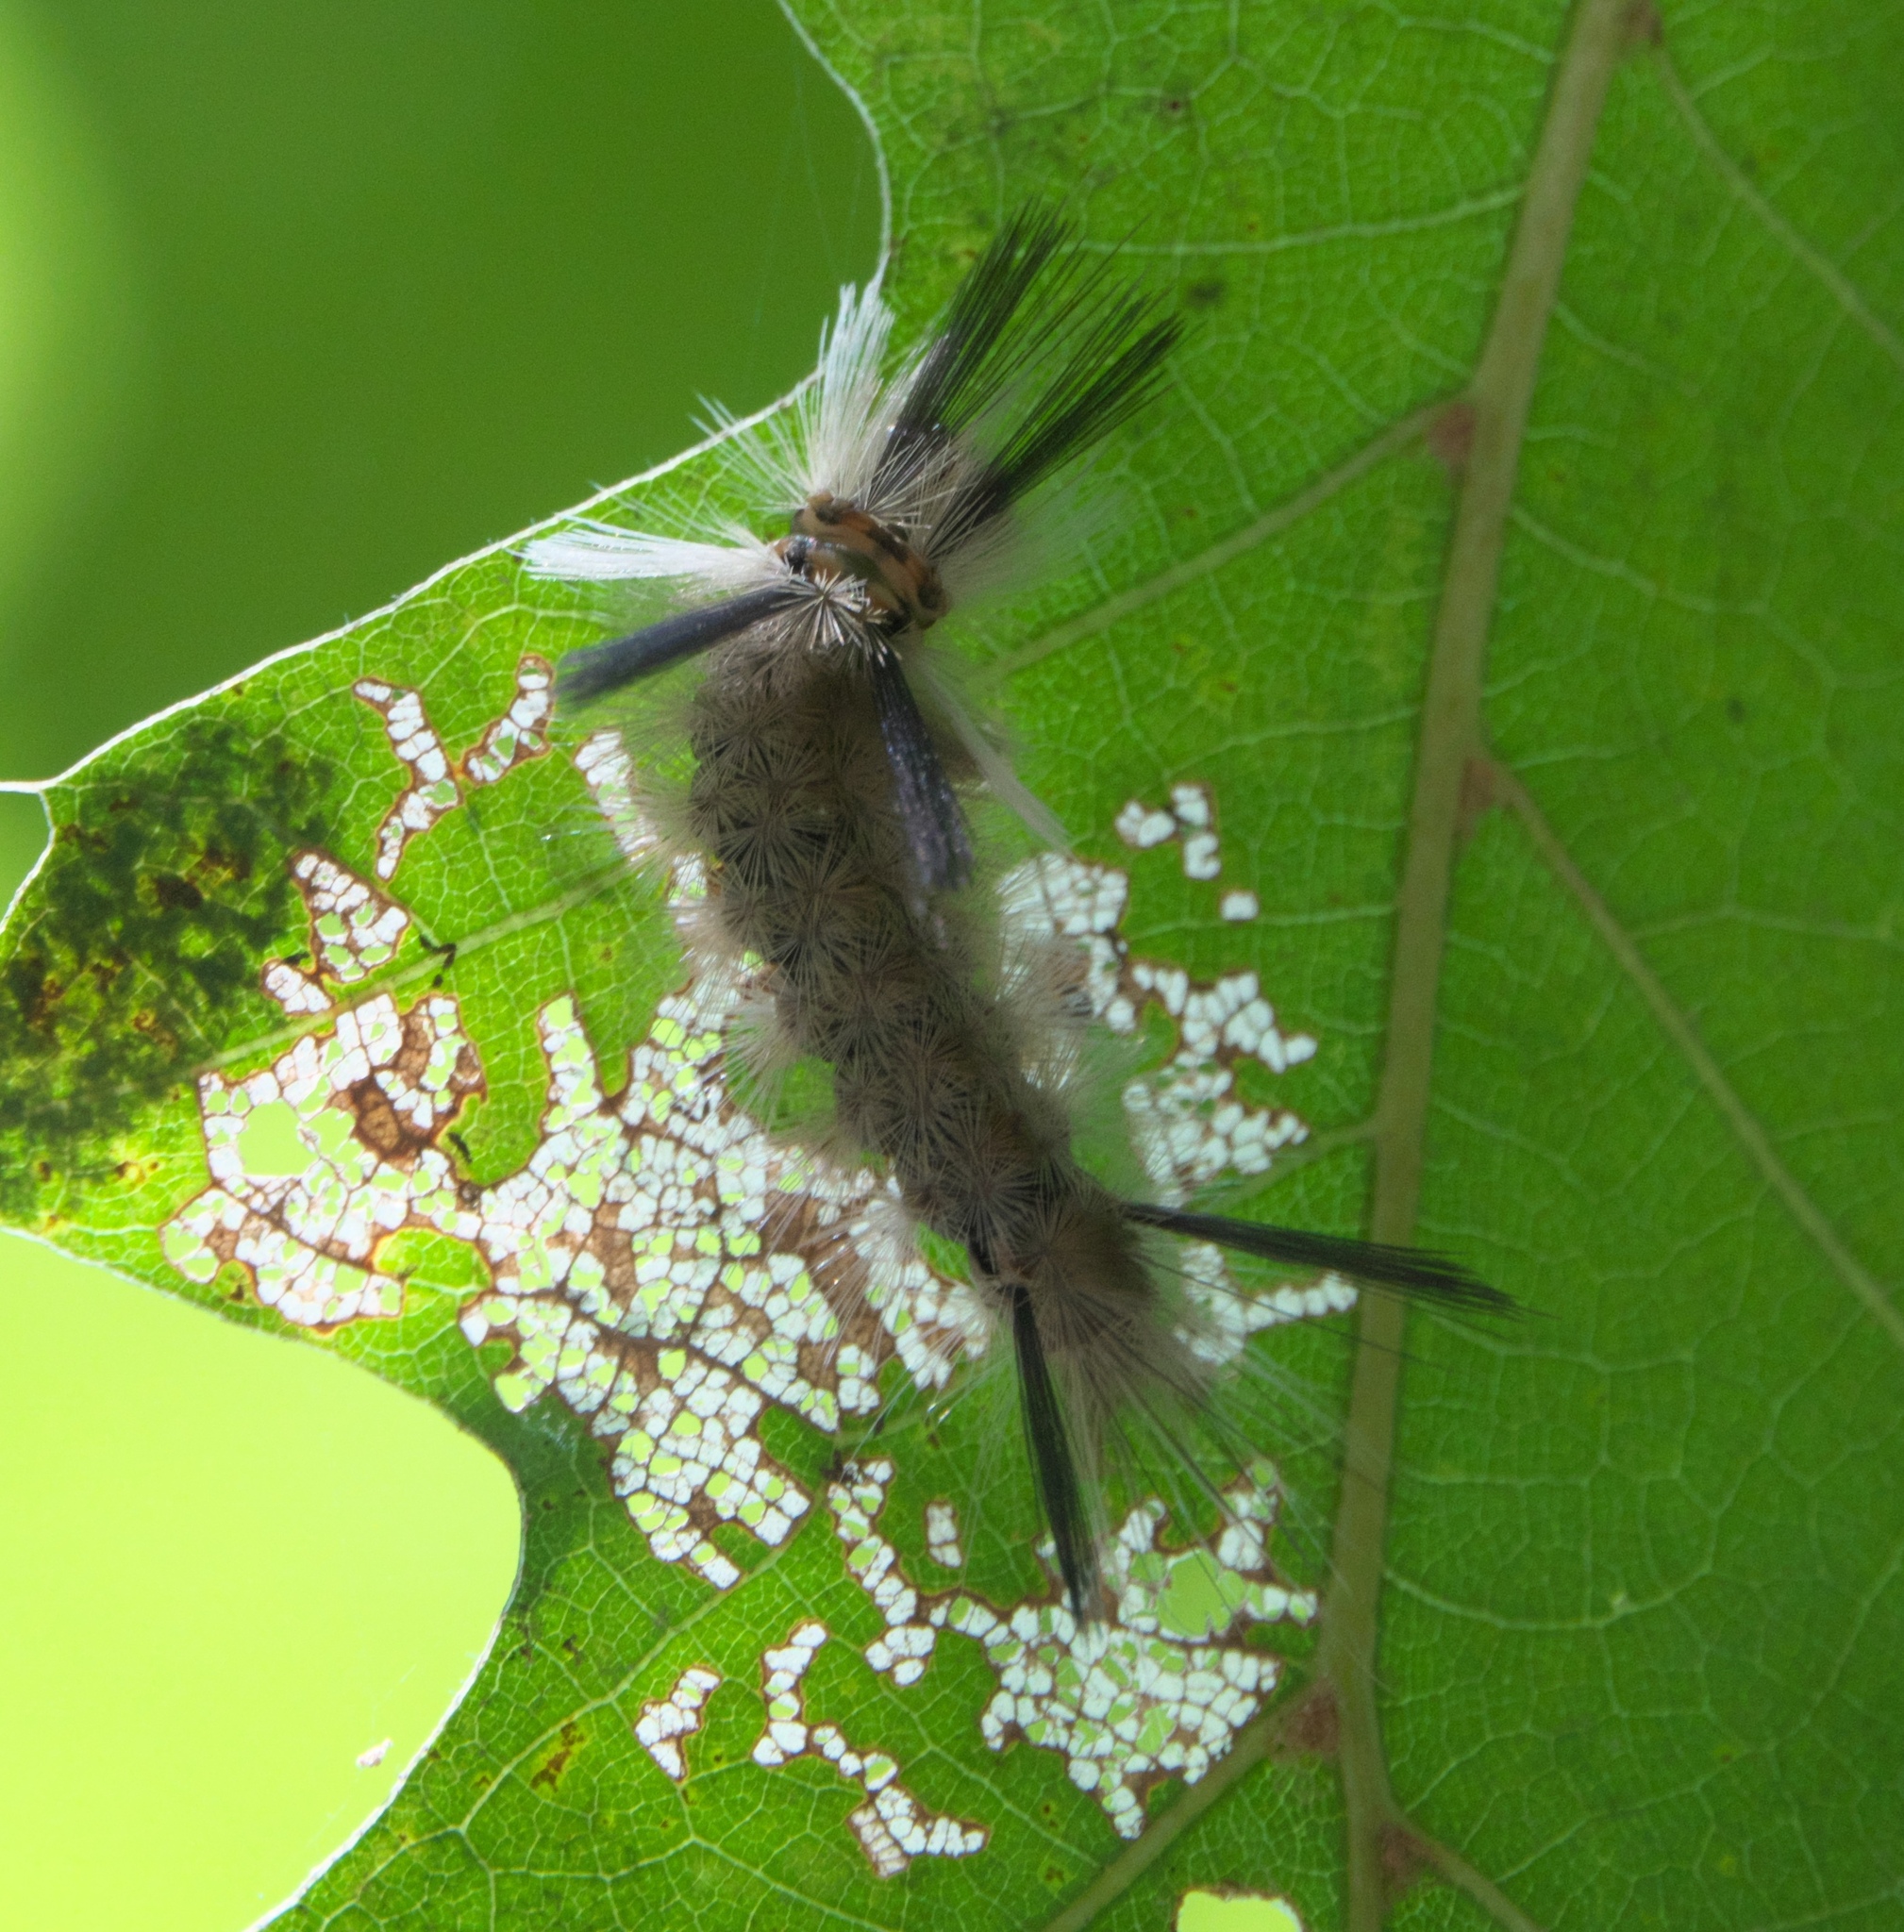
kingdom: Animalia
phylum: Arthropoda
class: Insecta
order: Lepidoptera
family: Erebidae
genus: Halysidota
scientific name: Halysidota tessellaris
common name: Banded tussock moth
